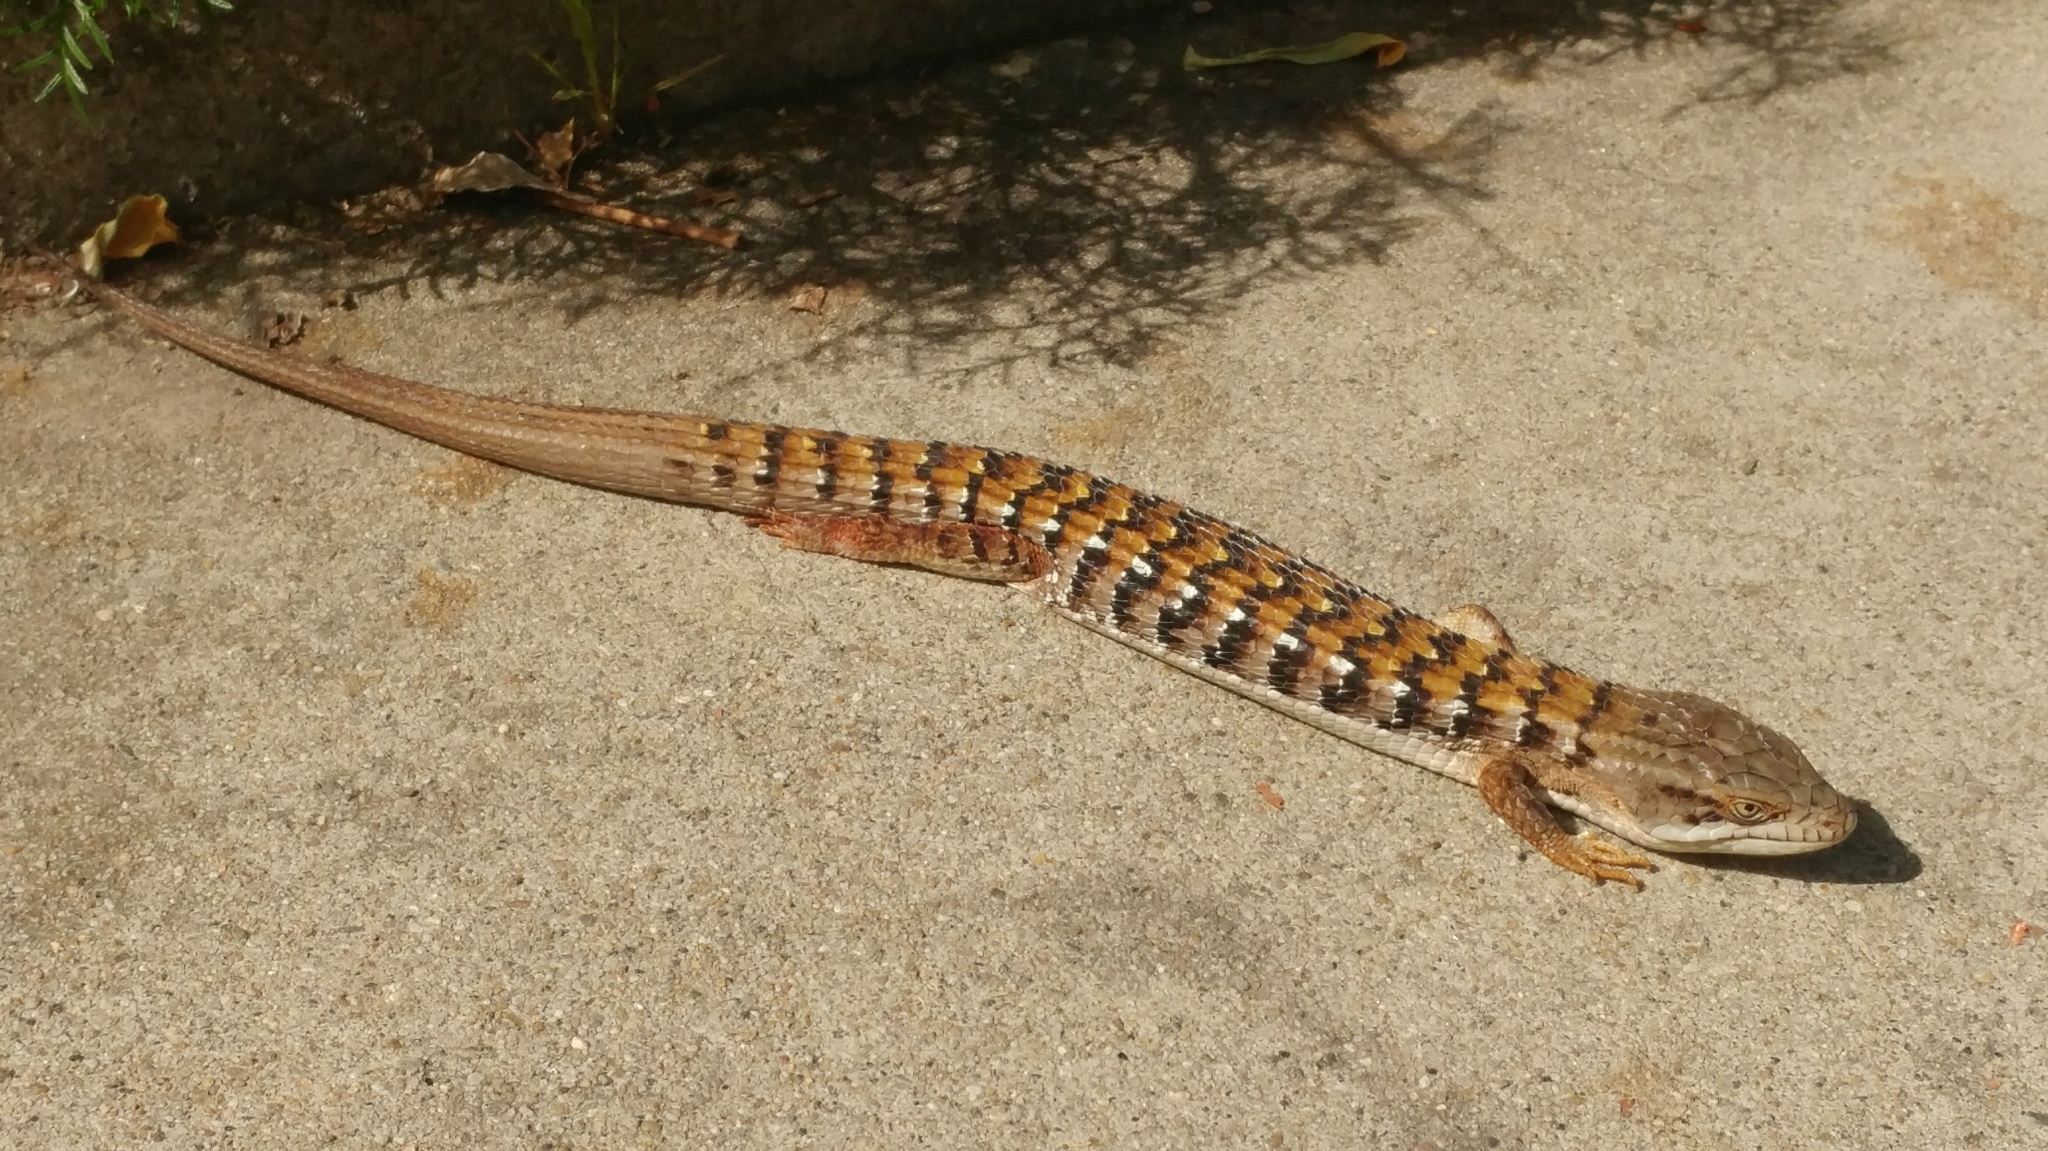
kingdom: Animalia
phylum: Chordata
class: Squamata
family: Anguidae
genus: Elgaria
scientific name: Elgaria multicarinata
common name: Southern alligator lizard
